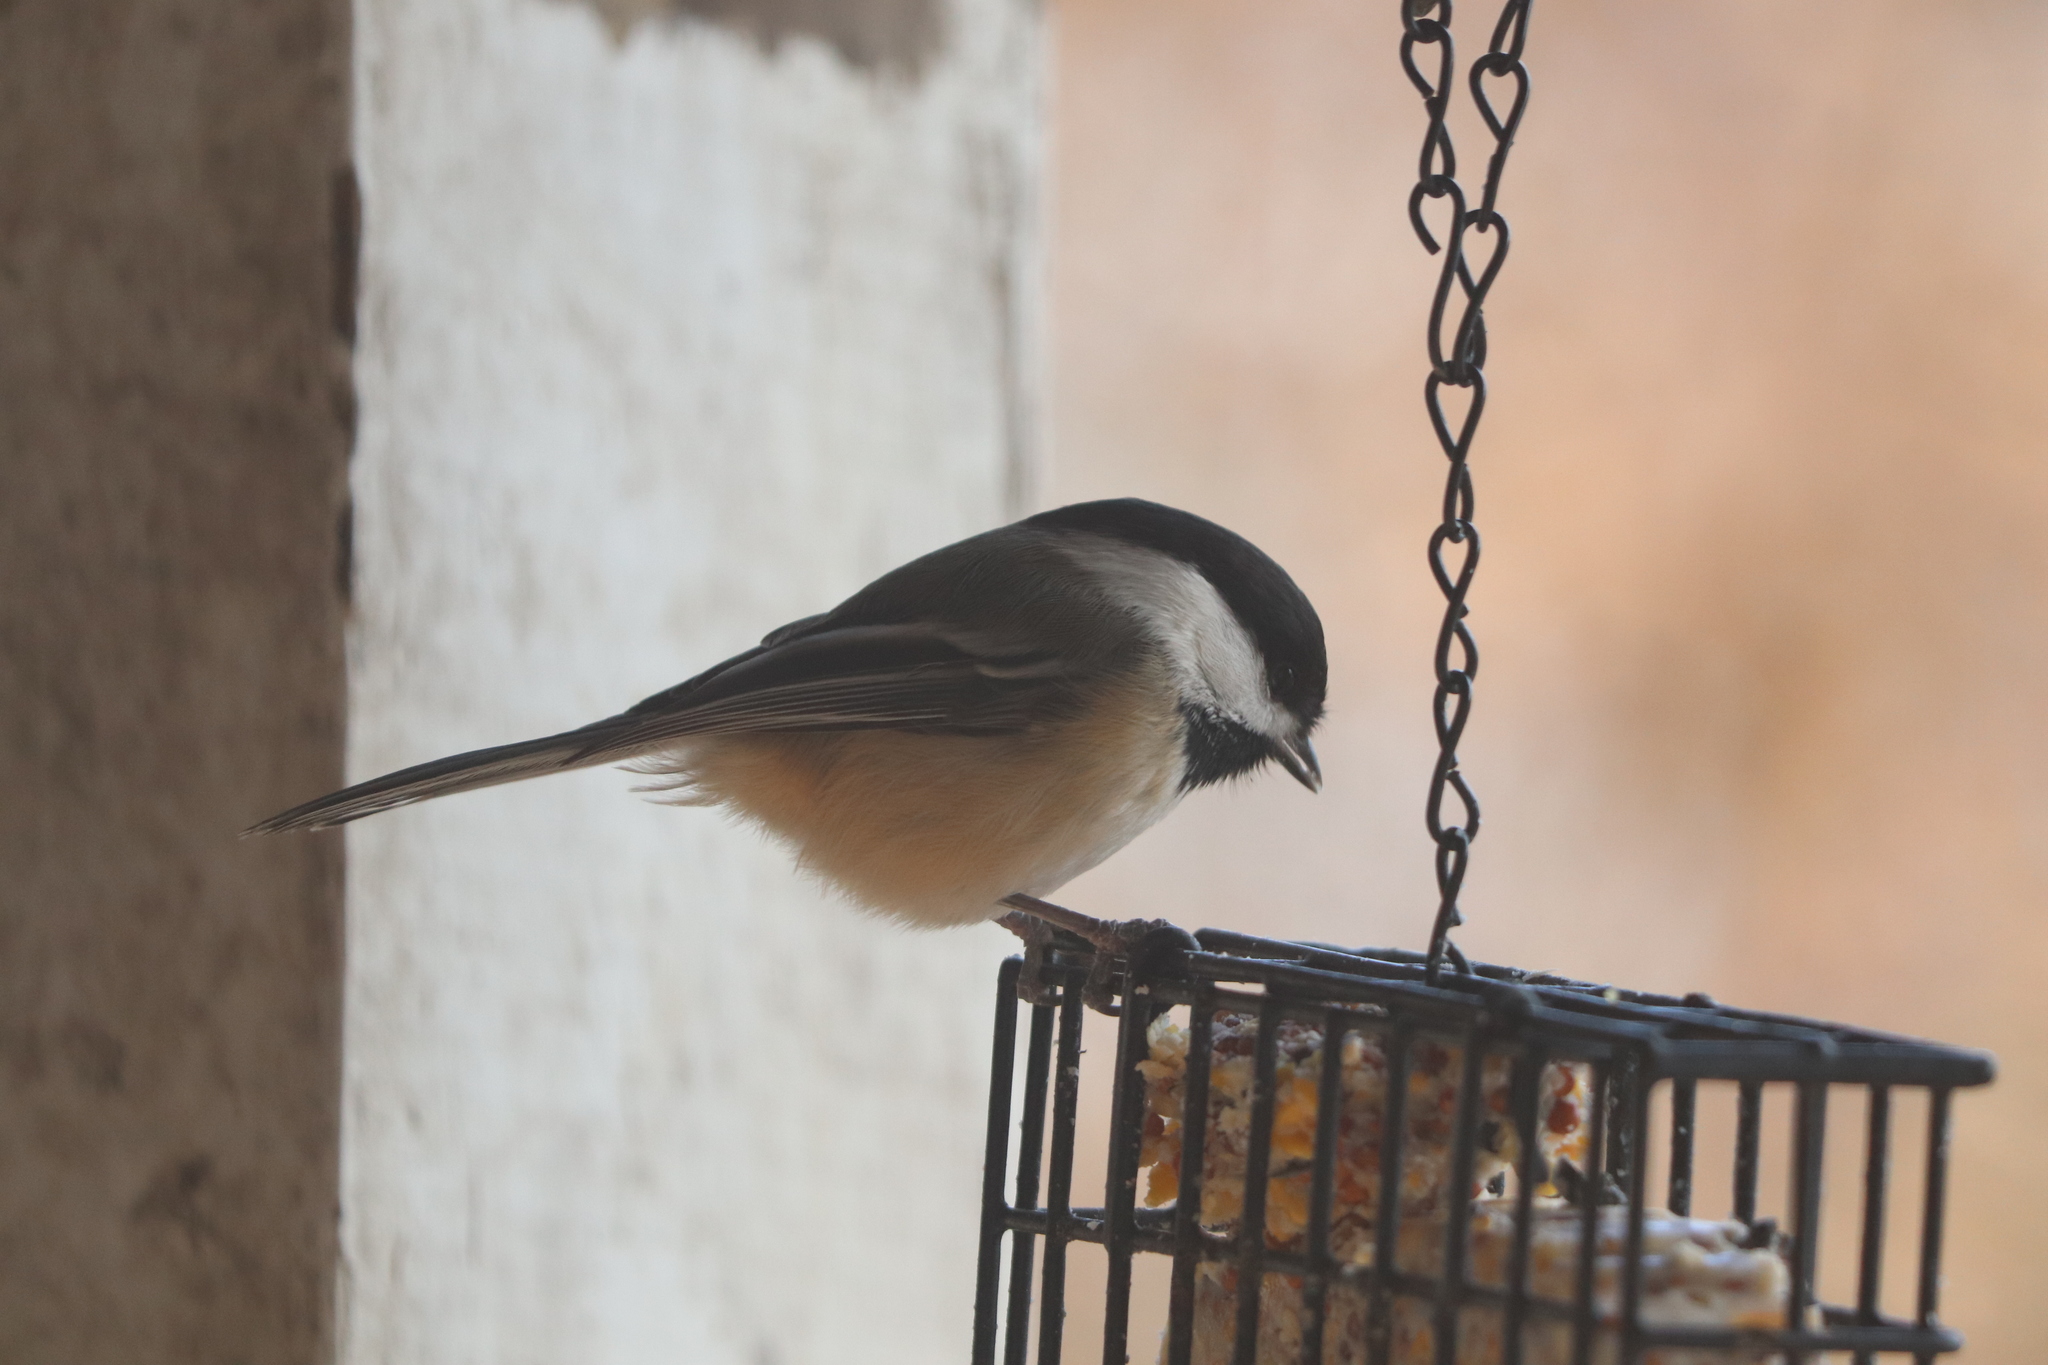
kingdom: Animalia
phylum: Chordata
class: Aves
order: Passeriformes
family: Paridae
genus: Poecile
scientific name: Poecile atricapillus
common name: Black-capped chickadee
